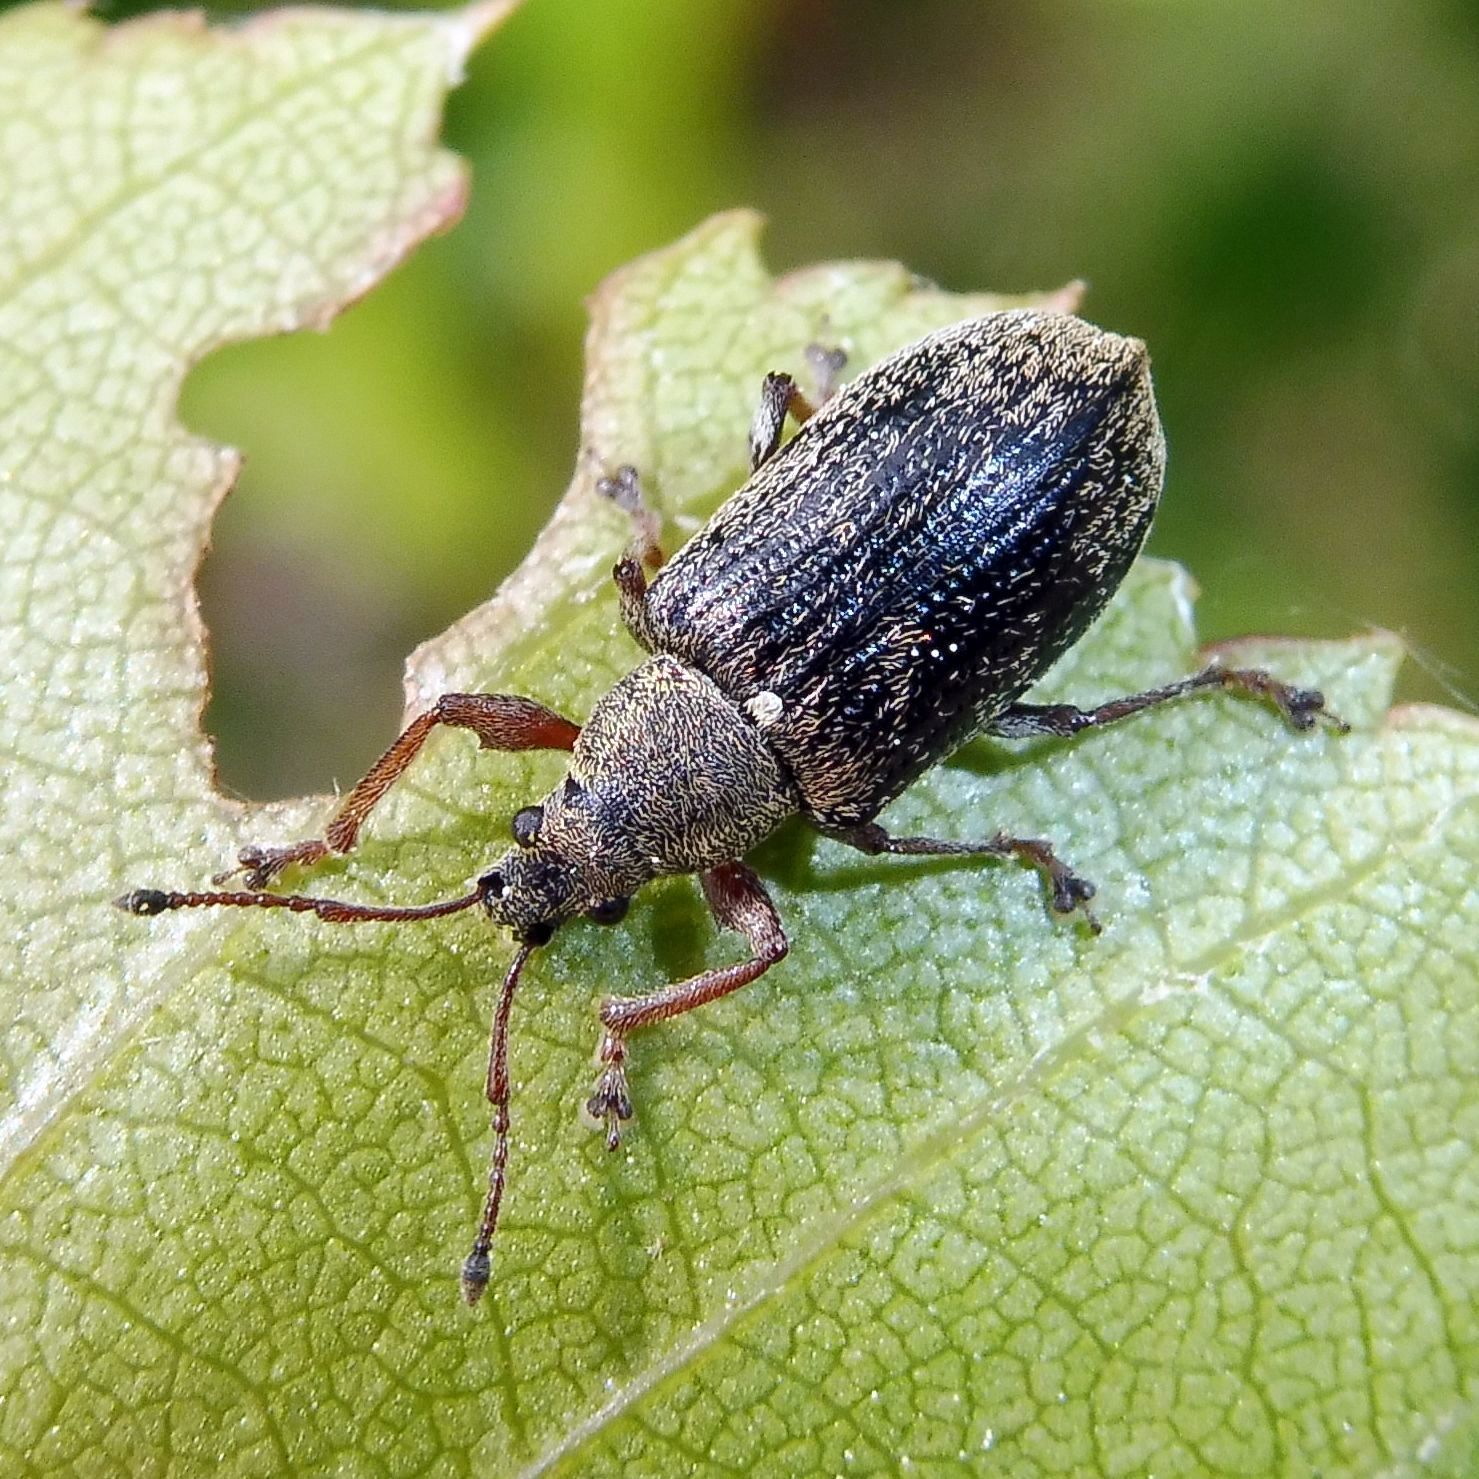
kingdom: Animalia
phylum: Arthropoda
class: Insecta
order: Coleoptera
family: Curculionidae
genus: Phyllobius
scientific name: Phyllobius pyri
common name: Common leaf weevil
